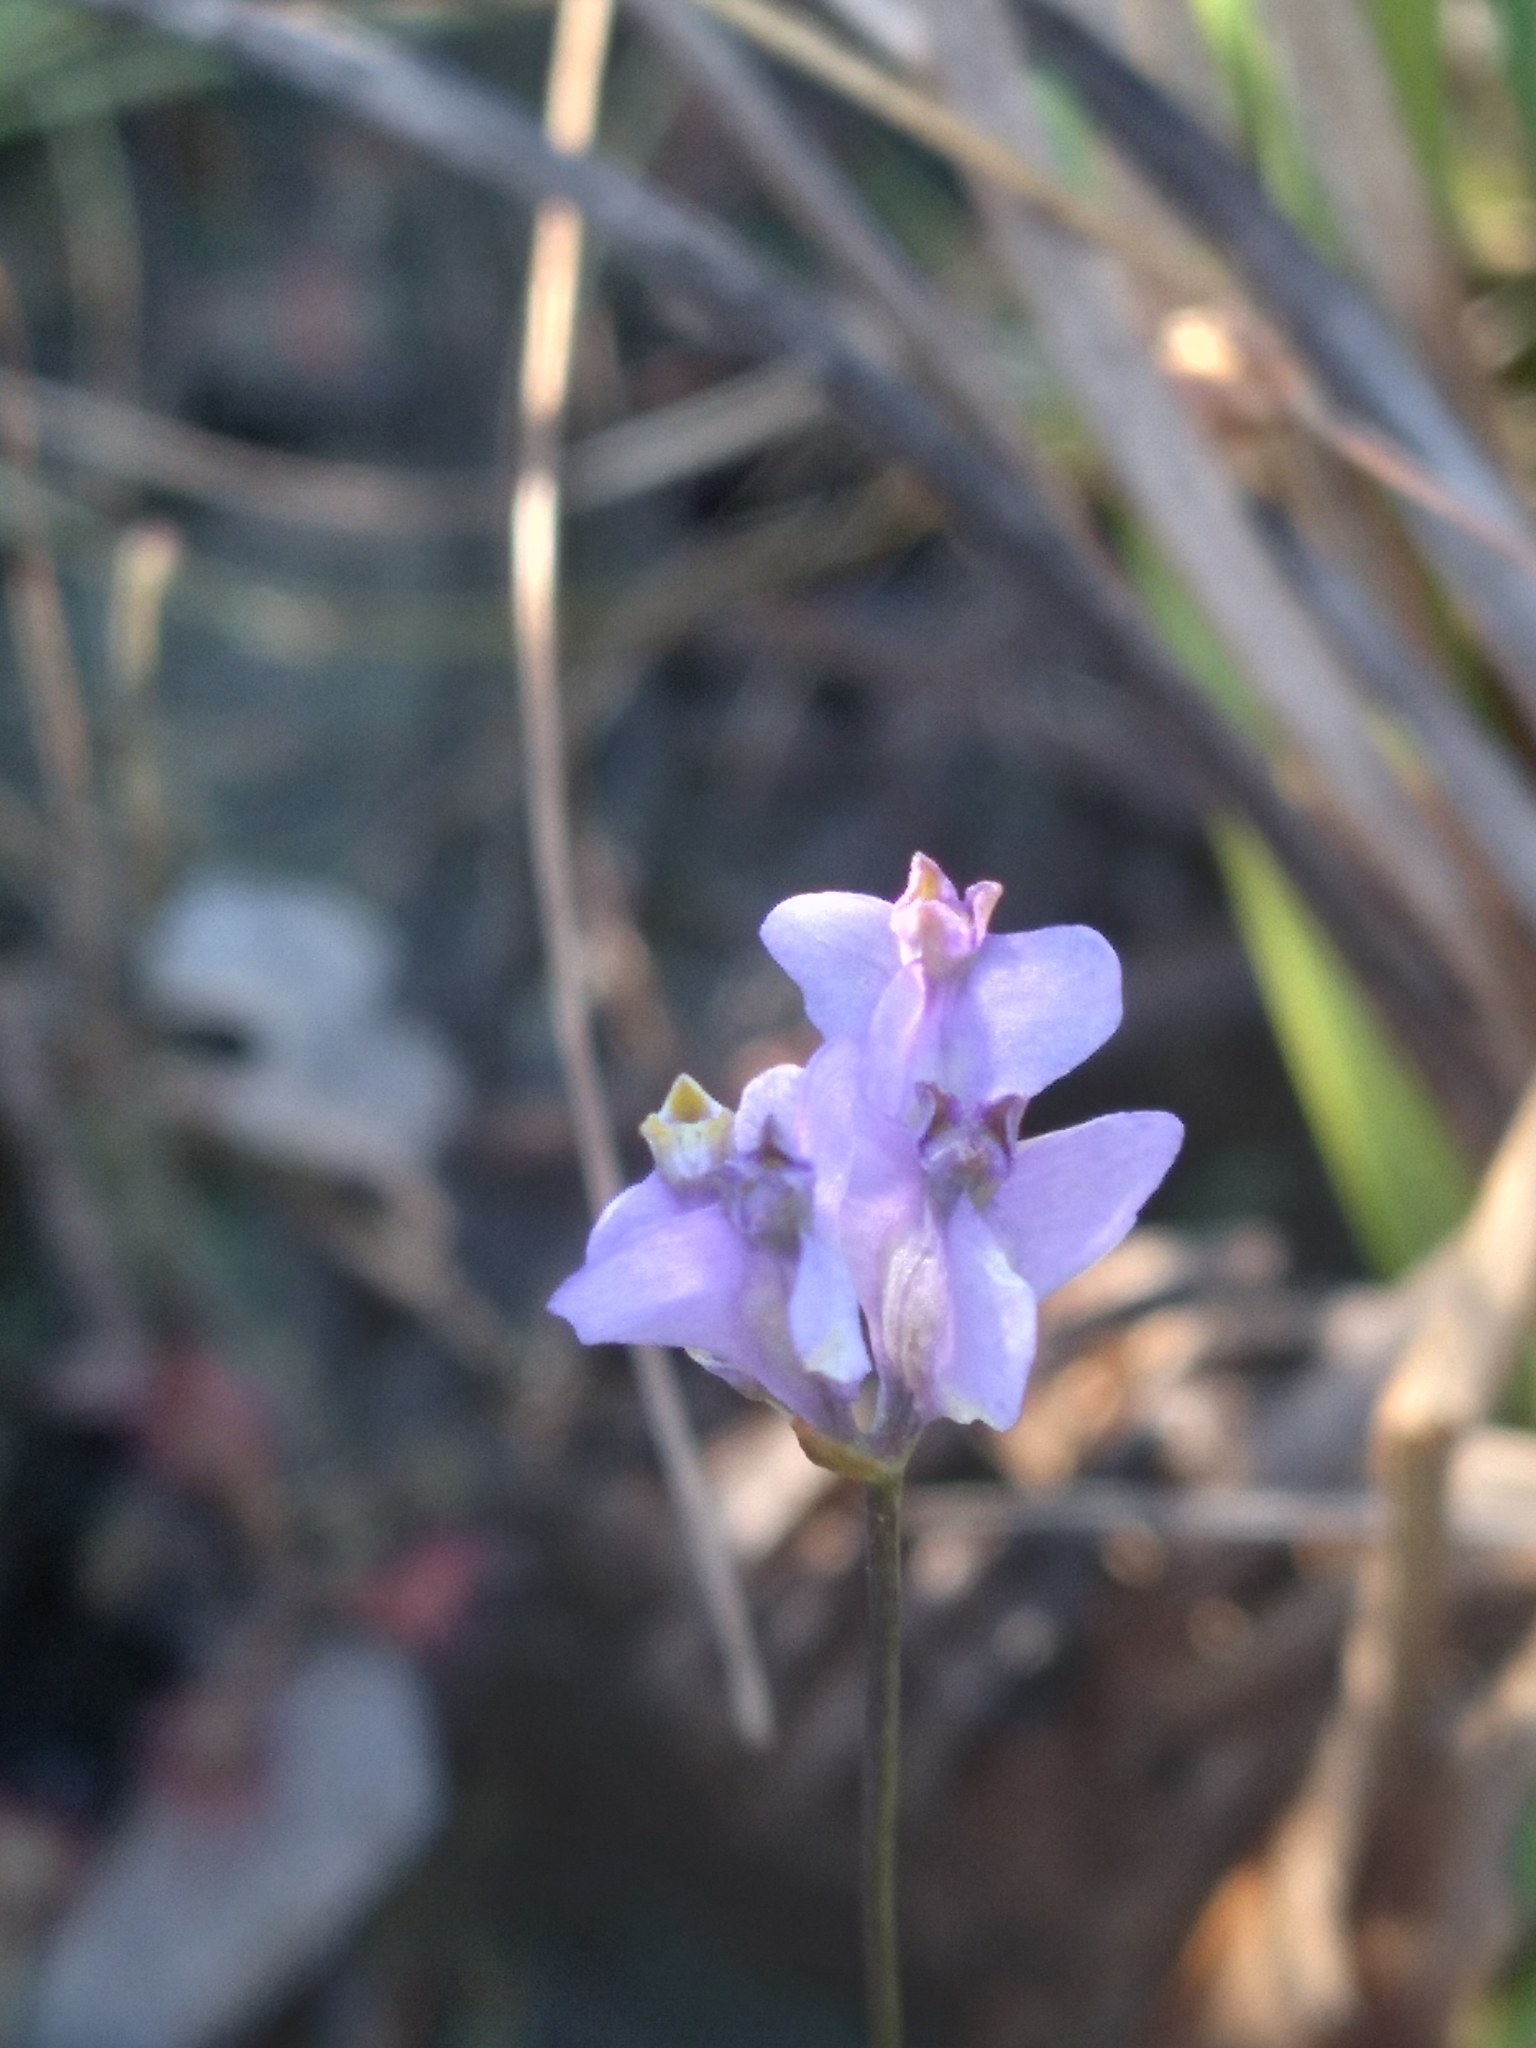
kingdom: Plantae
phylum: Tracheophyta
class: Liliopsida
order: Dioscoreales
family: Burmanniaceae
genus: Burmannia
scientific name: Burmannia biflora
